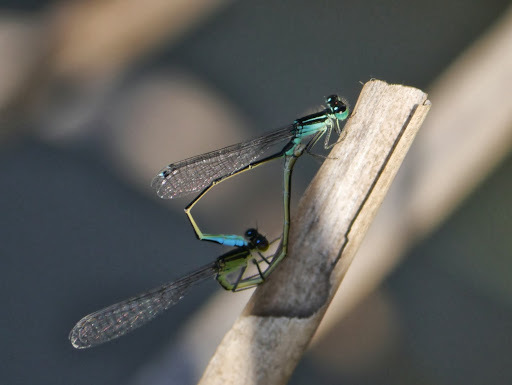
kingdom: Animalia
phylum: Arthropoda
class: Insecta
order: Odonata
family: Coenagrionidae
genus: Ischnura
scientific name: Ischnura elegans
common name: Blue-tailed damselfly
